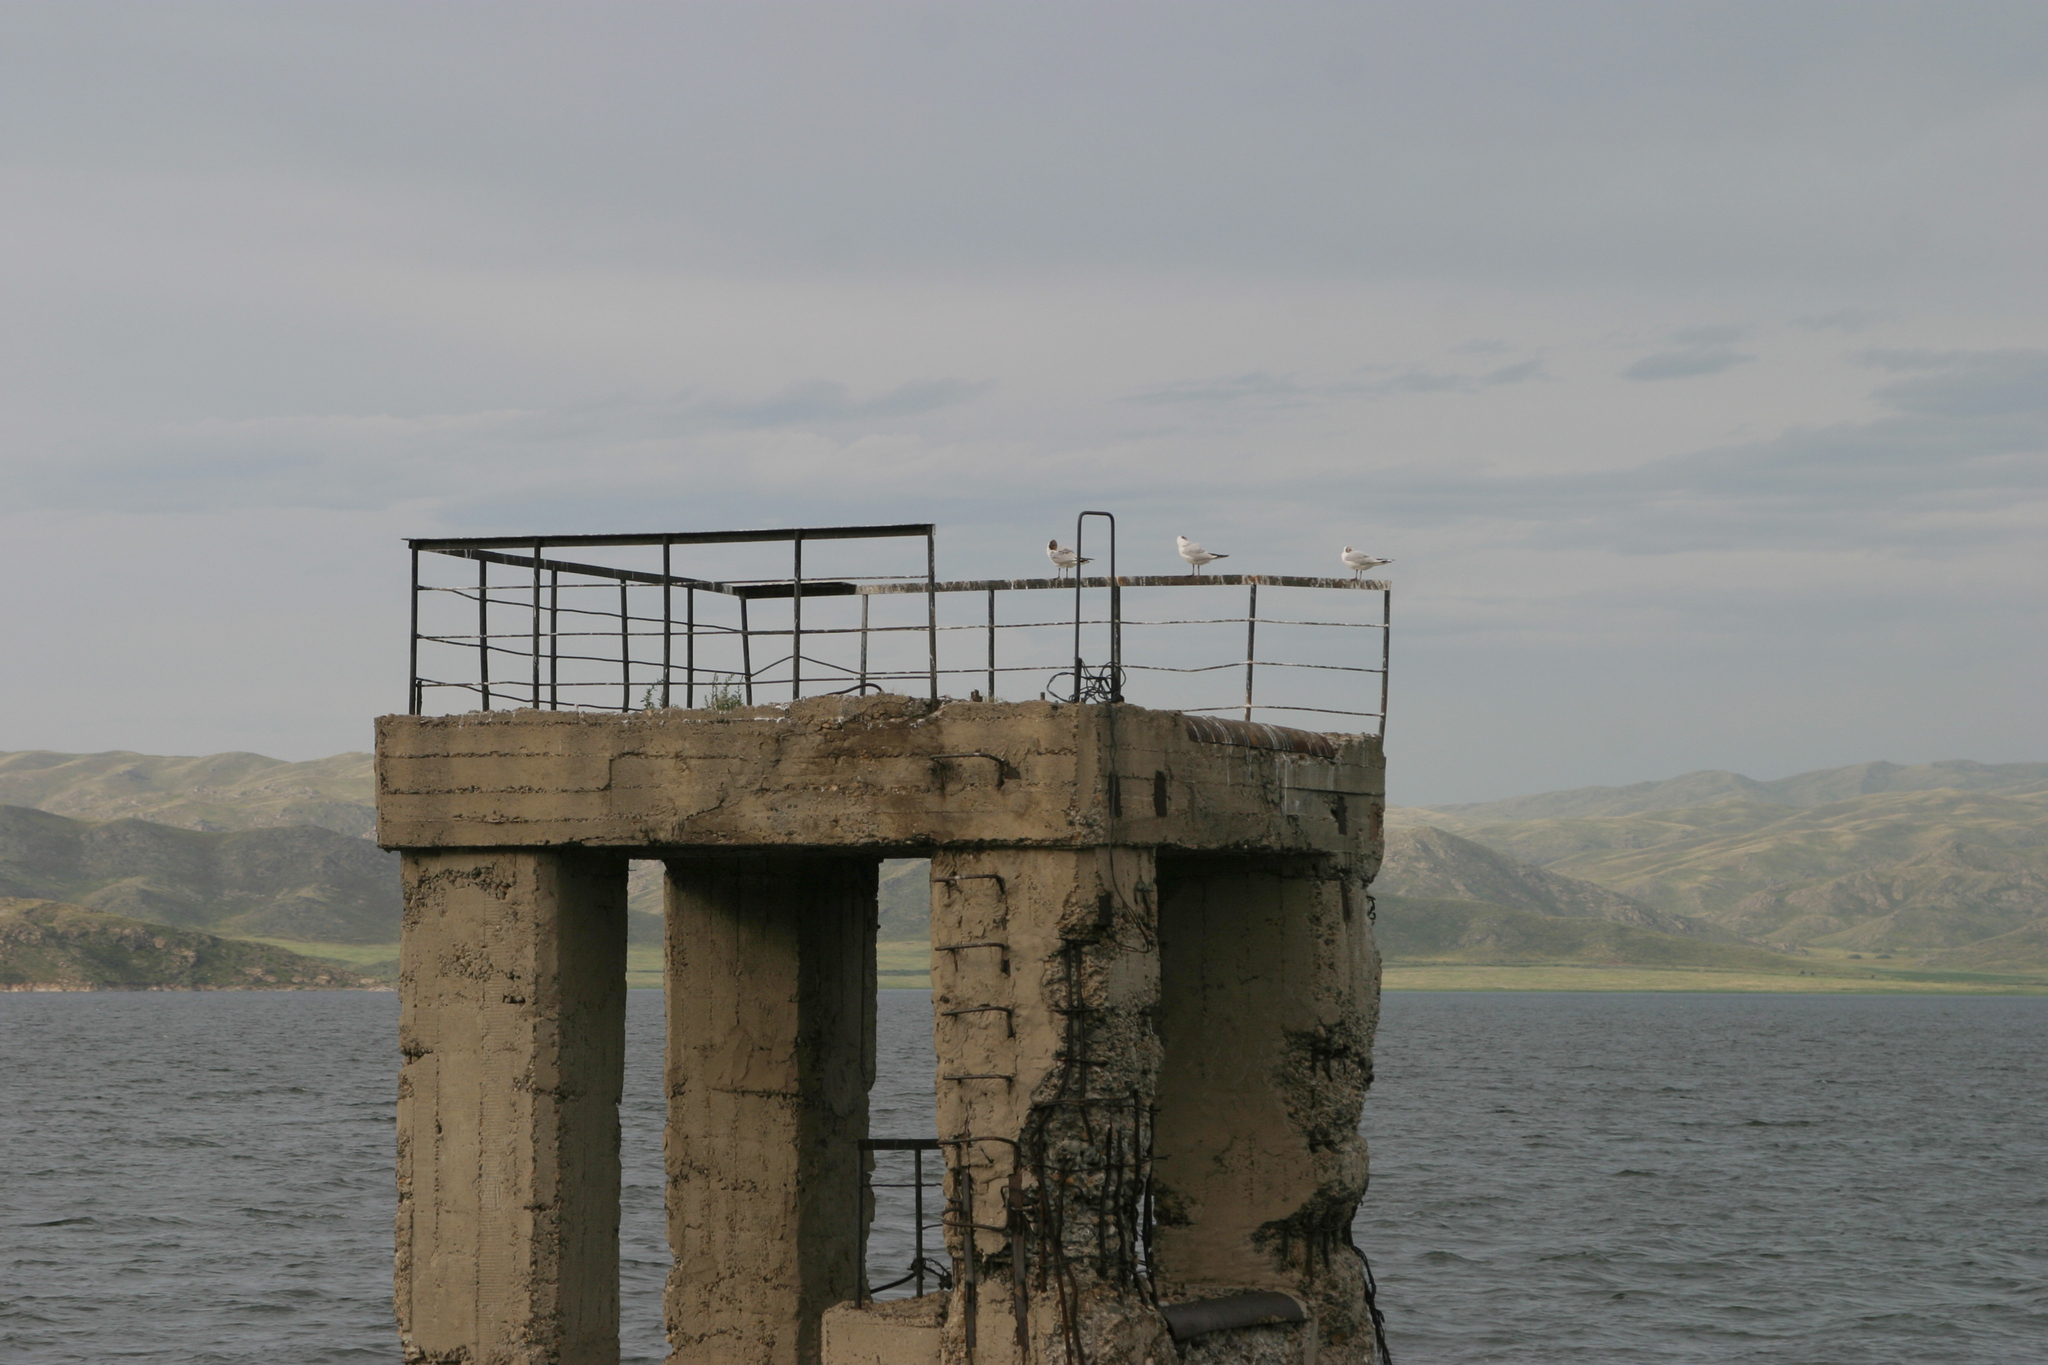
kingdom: Animalia
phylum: Chordata
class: Aves
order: Charadriiformes
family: Laridae
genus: Chroicocephalus
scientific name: Chroicocephalus ridibundus
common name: Black-headed gull
